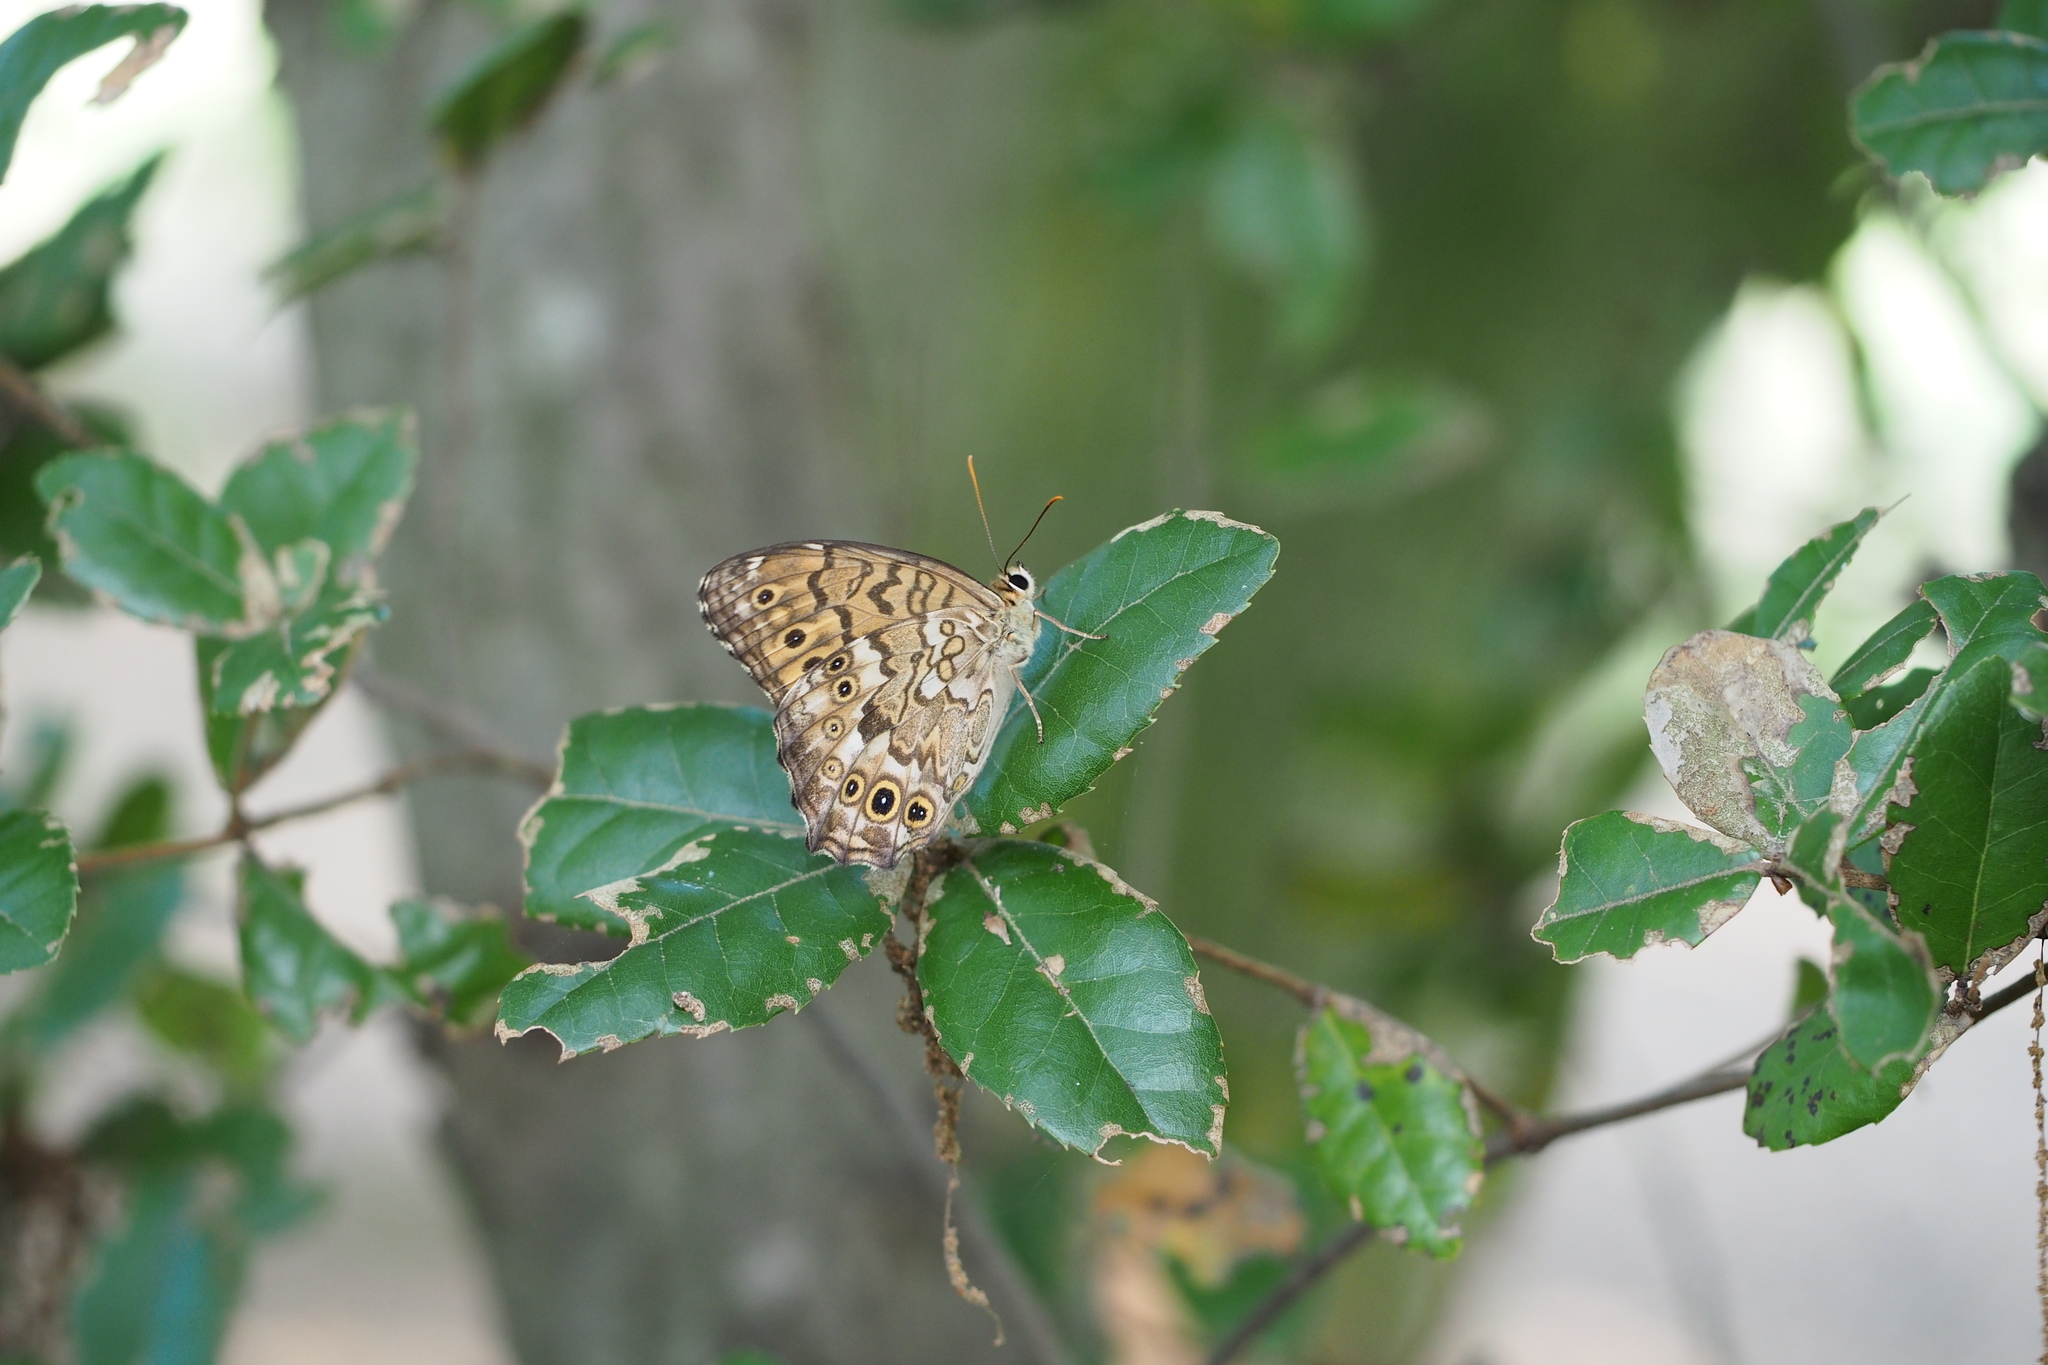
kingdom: Animalia
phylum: Arthropoda
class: Insecta
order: Lepidoptera
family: Nymphalidae
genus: Neope
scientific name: Neope goschkevitschii
